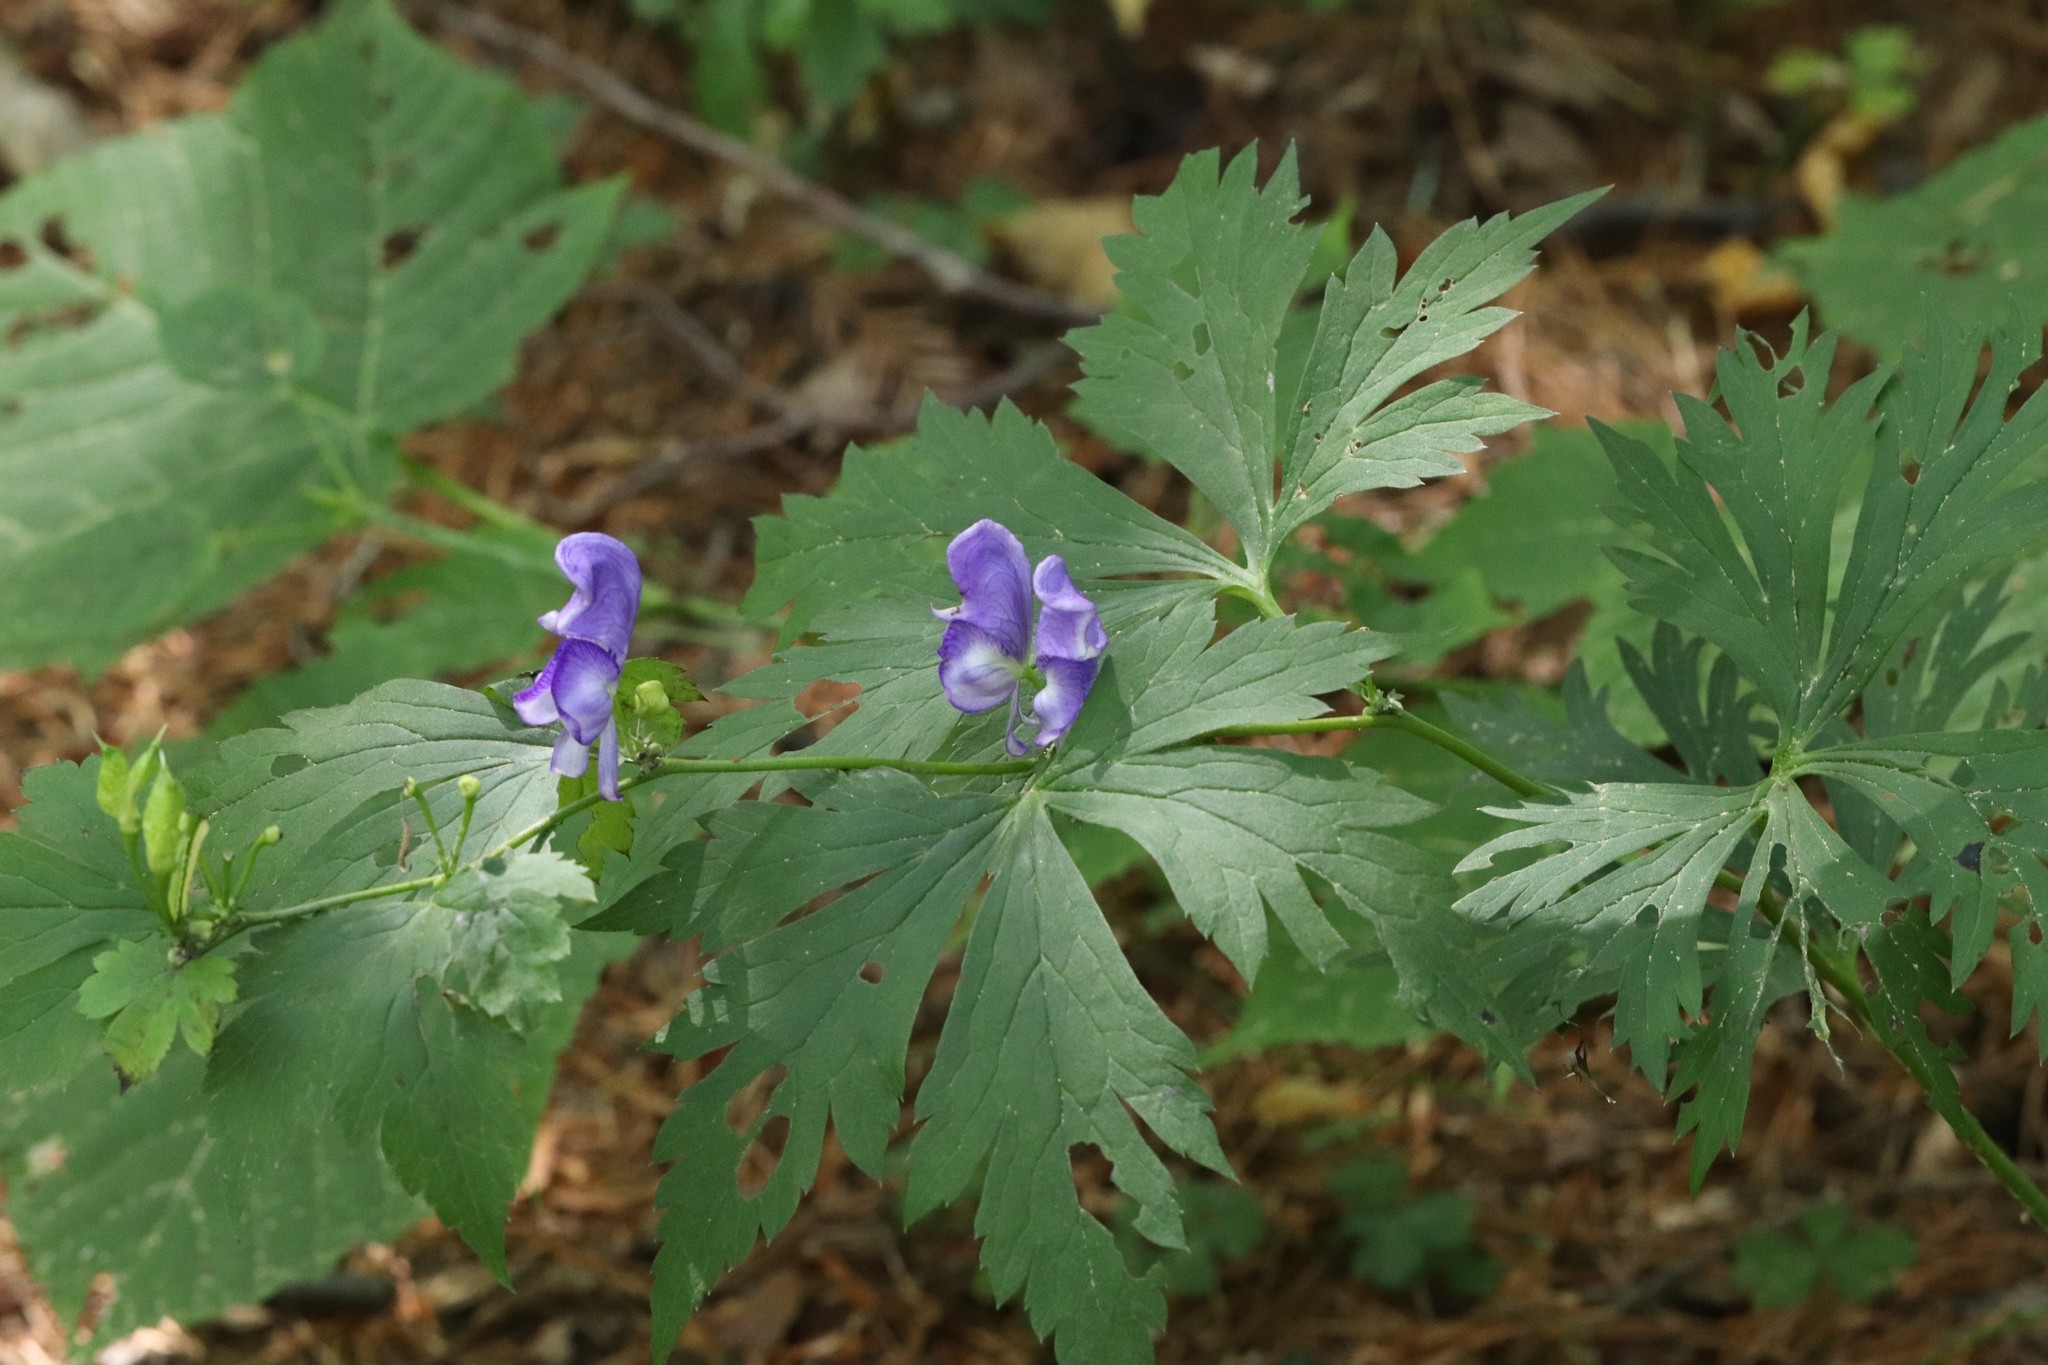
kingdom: Plantae
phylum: Tracheophyta
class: Magnoliopsida
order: Ranunculales
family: Ranunculaceae
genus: Aconitum
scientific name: Aconitum sczukinii
